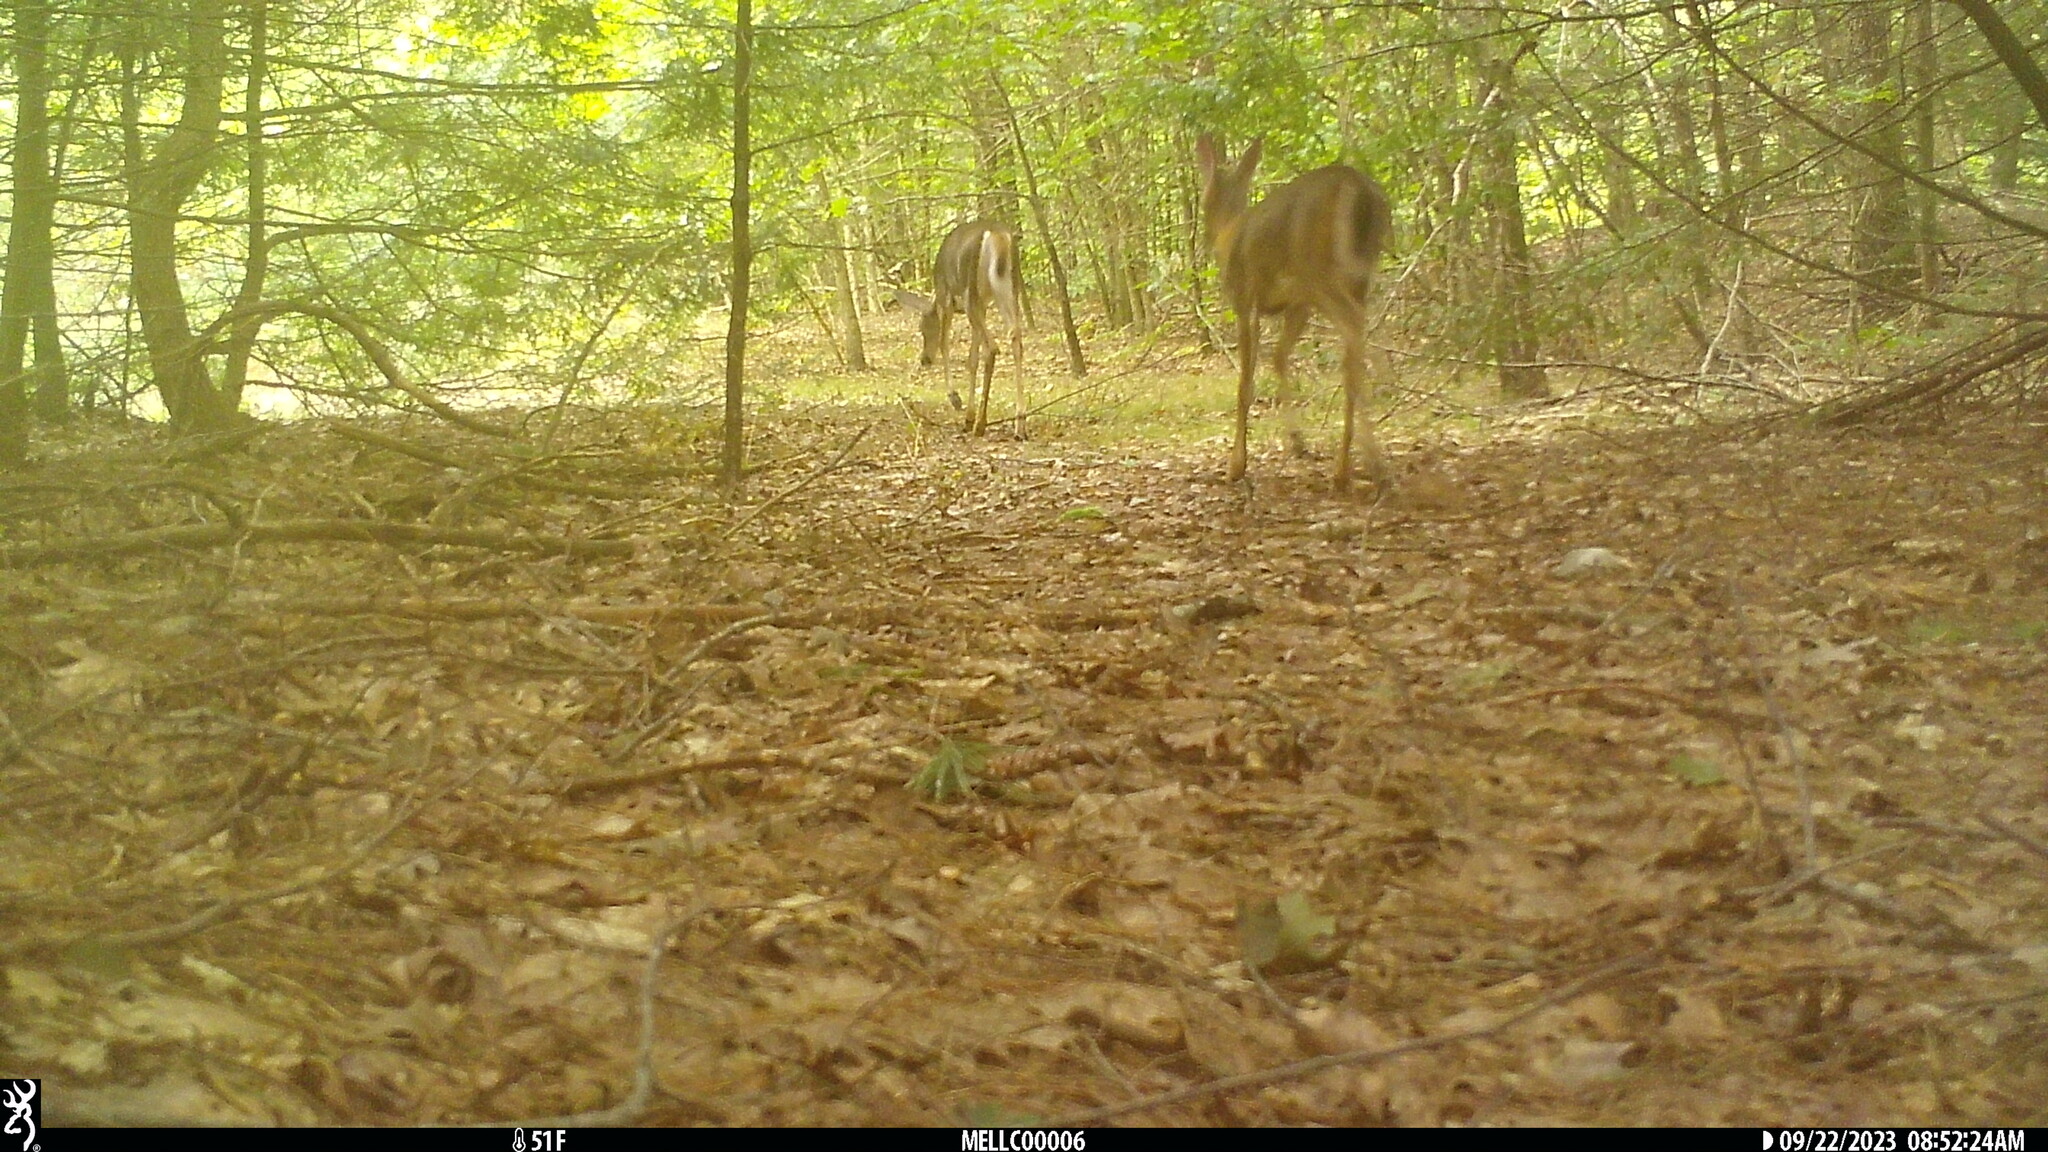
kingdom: Animalia
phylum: Chordata
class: Mammalia
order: Artiodactyla
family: Cervidae
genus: Odocoileus
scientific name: Odocoileus virginianus
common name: White-tailed deer
